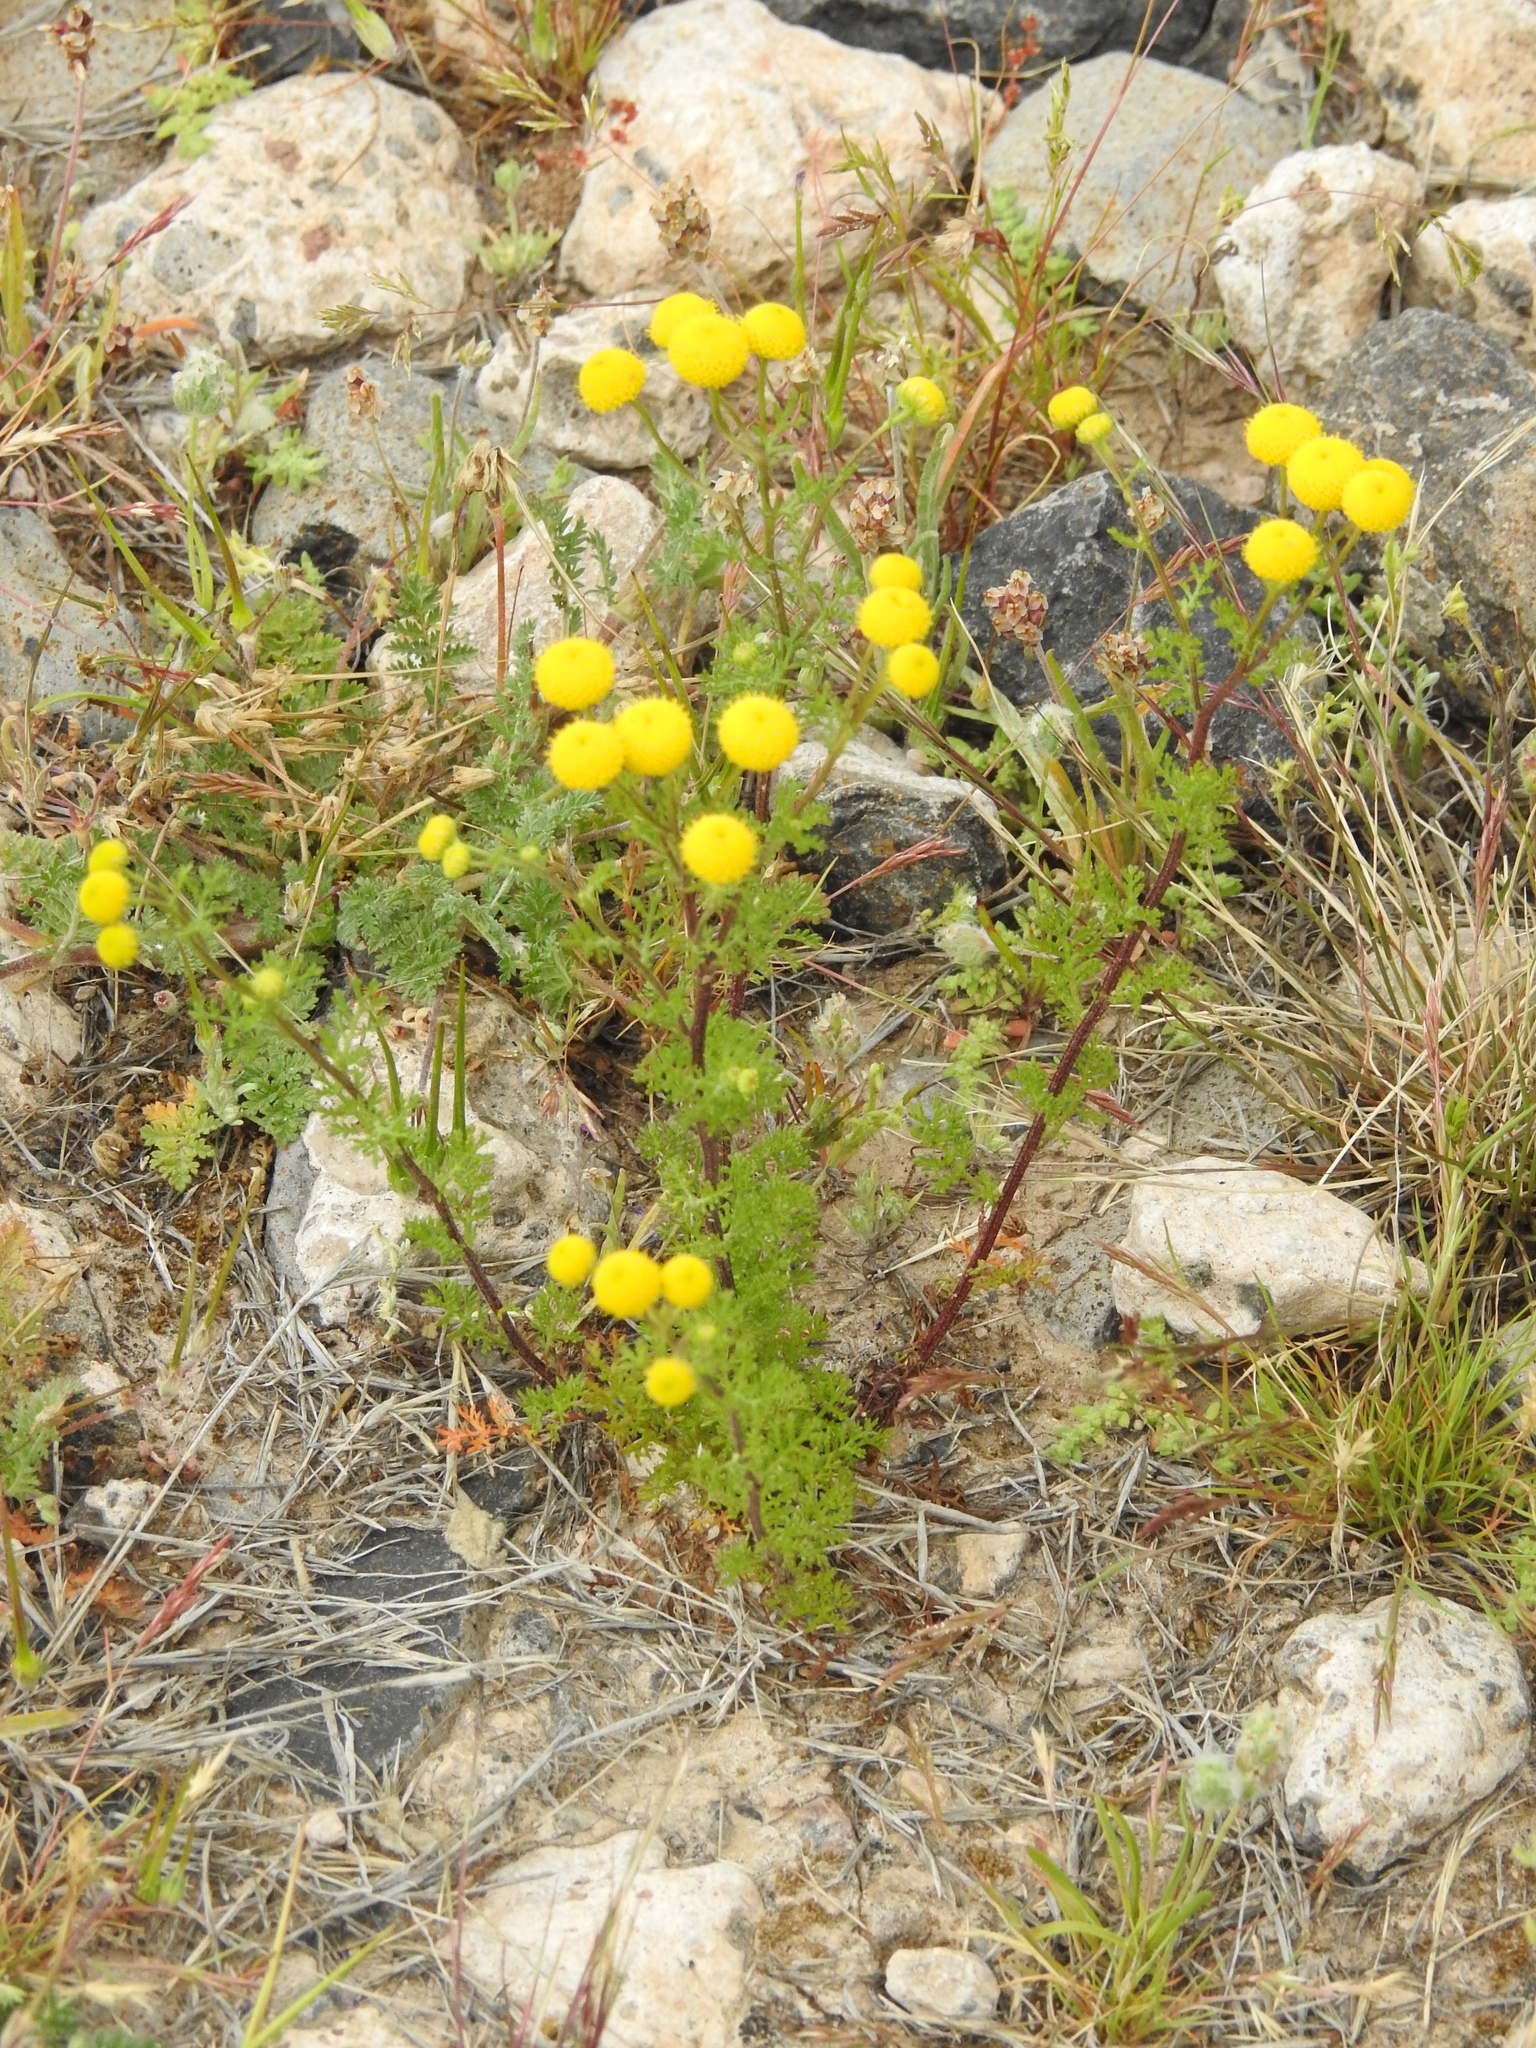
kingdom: Plantae
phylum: Tracheophyta
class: Magnoliopsida
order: Asterales
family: Asteraceae
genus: Oncosiphon
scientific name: Oncosiphon pilulifer
